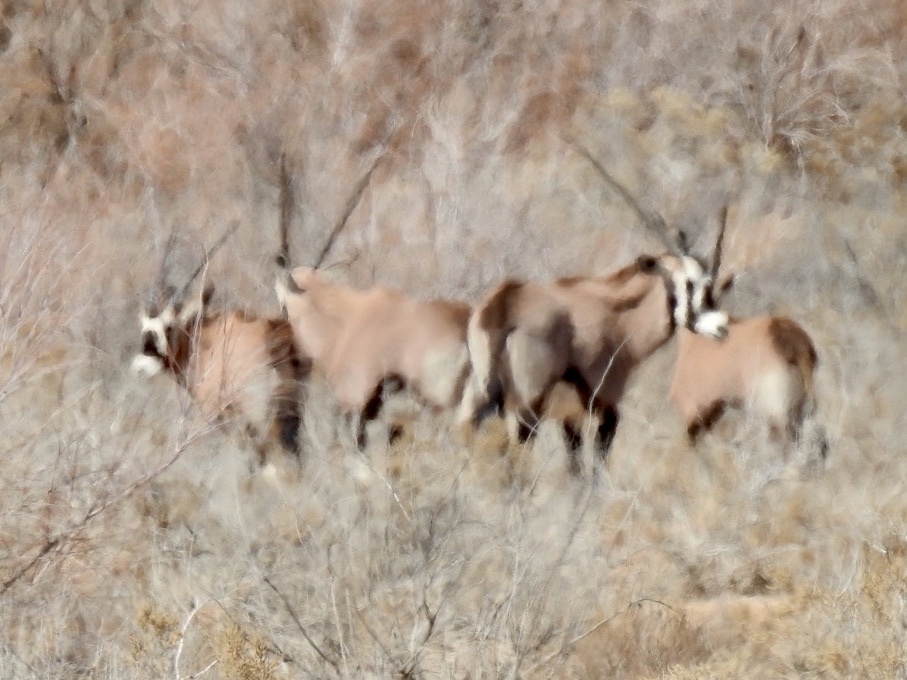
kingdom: Animalia
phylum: Chordata
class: Mammalia
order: Artiodactyla
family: Bovidae
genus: Oryx
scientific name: Oryx gazella
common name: Gemsbok
